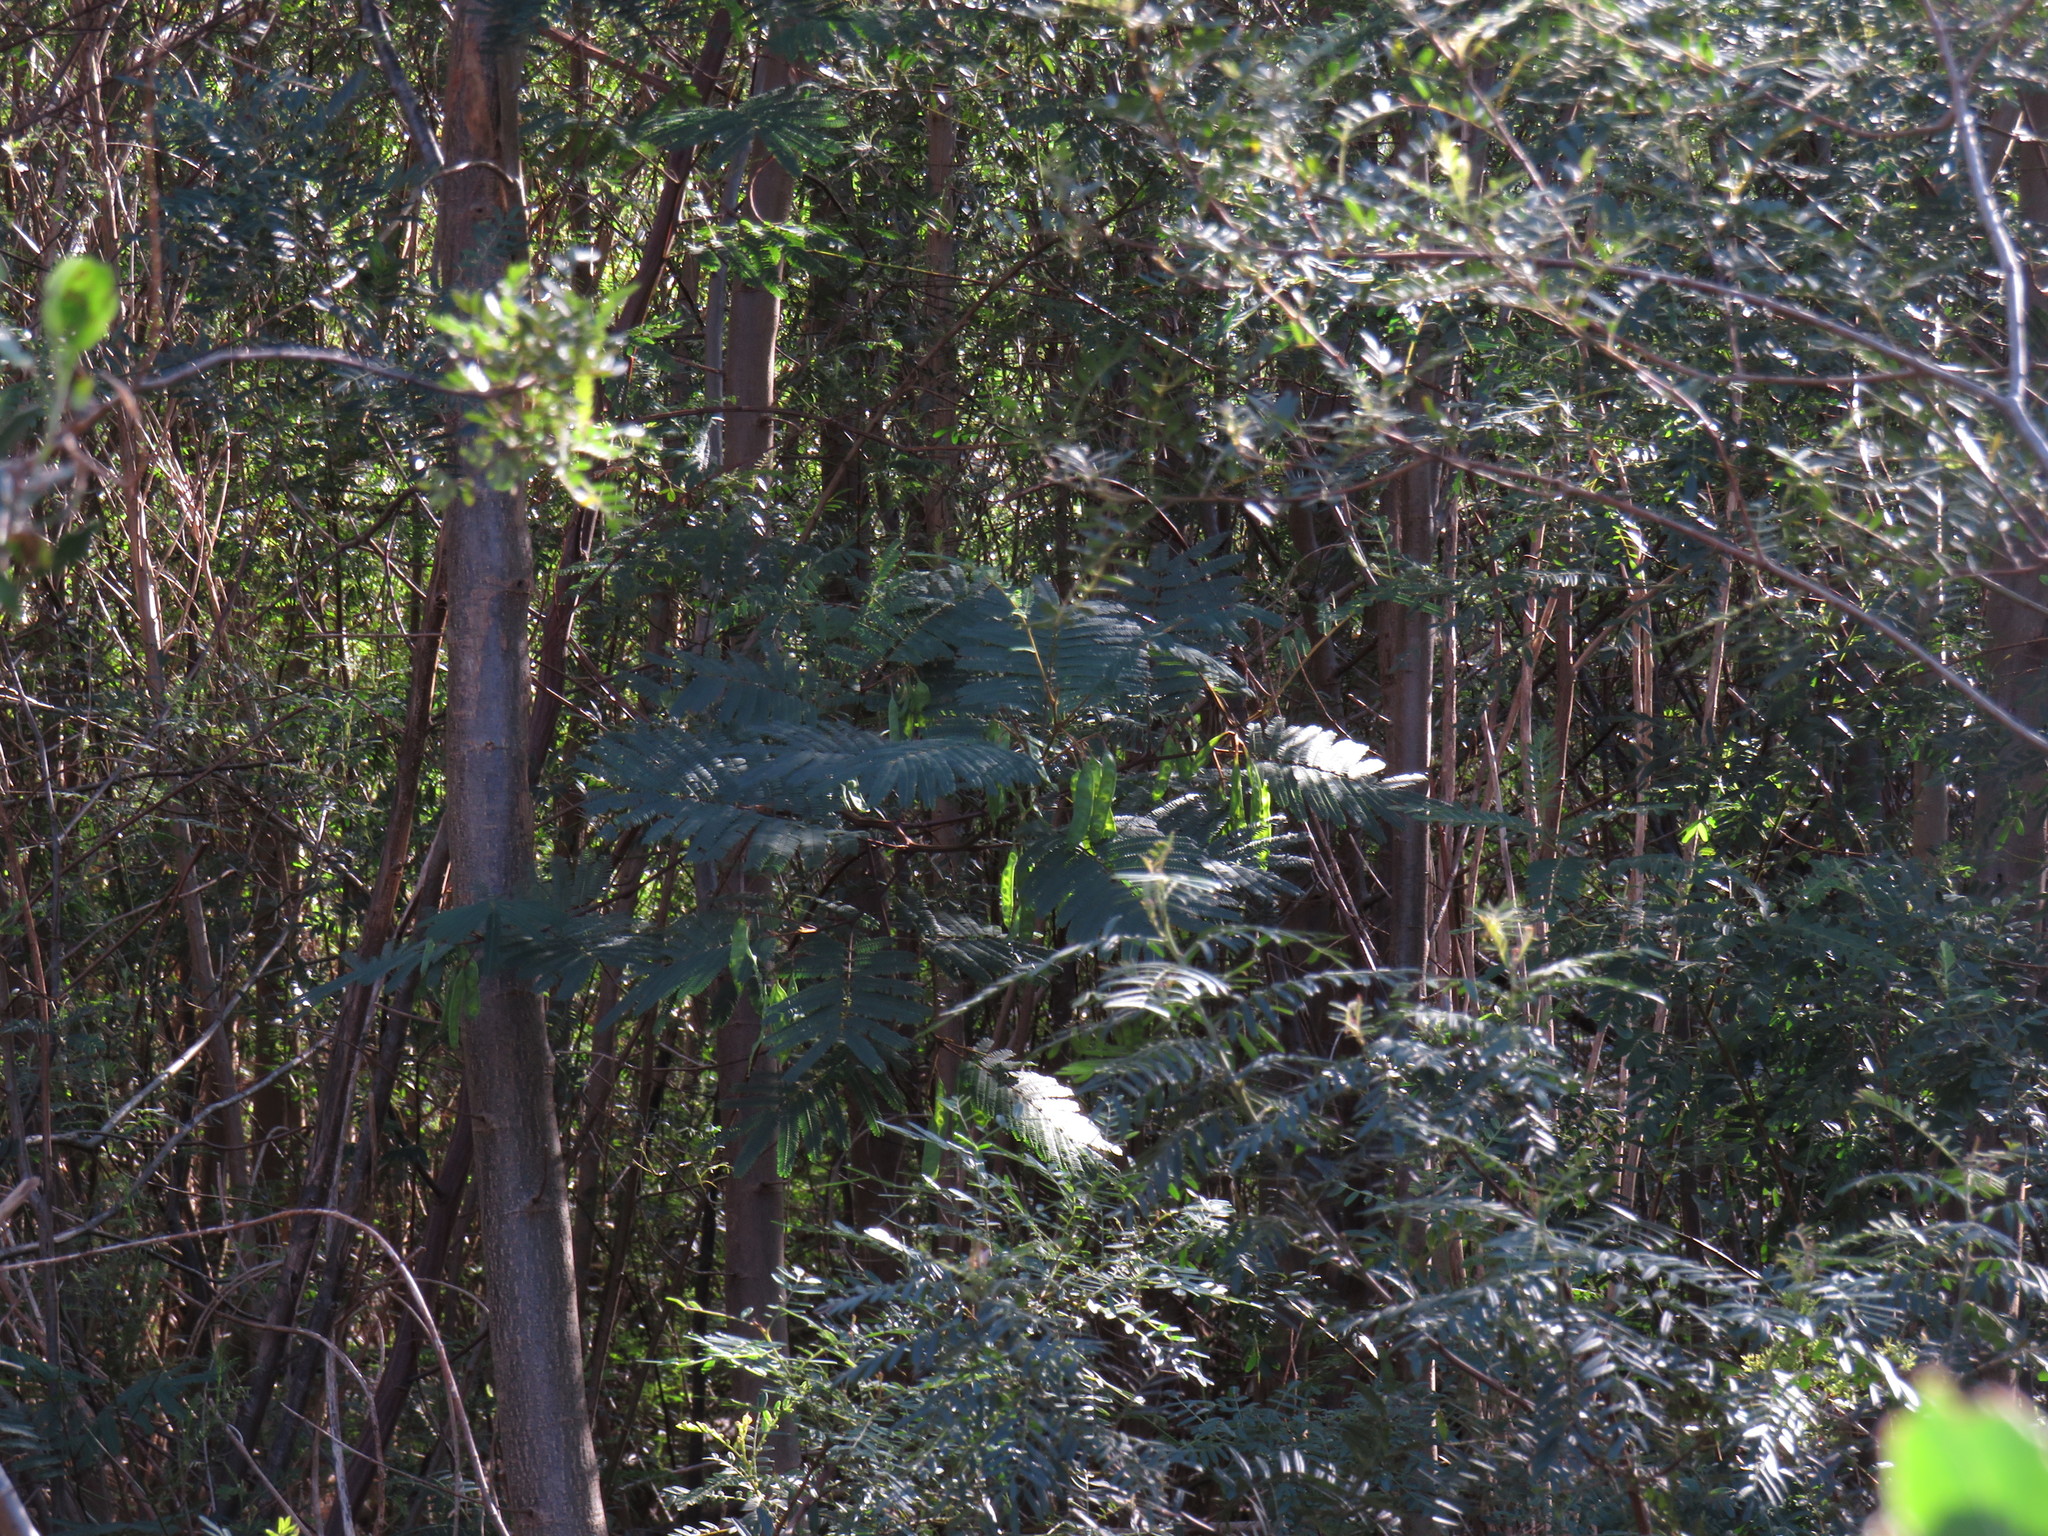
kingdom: Plantae
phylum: Tracheophyta
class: Magnoliopsida
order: Fabales
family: Fabaceae
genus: Paraserianthes
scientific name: Paraserianthes lophantha
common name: Plume albizia
